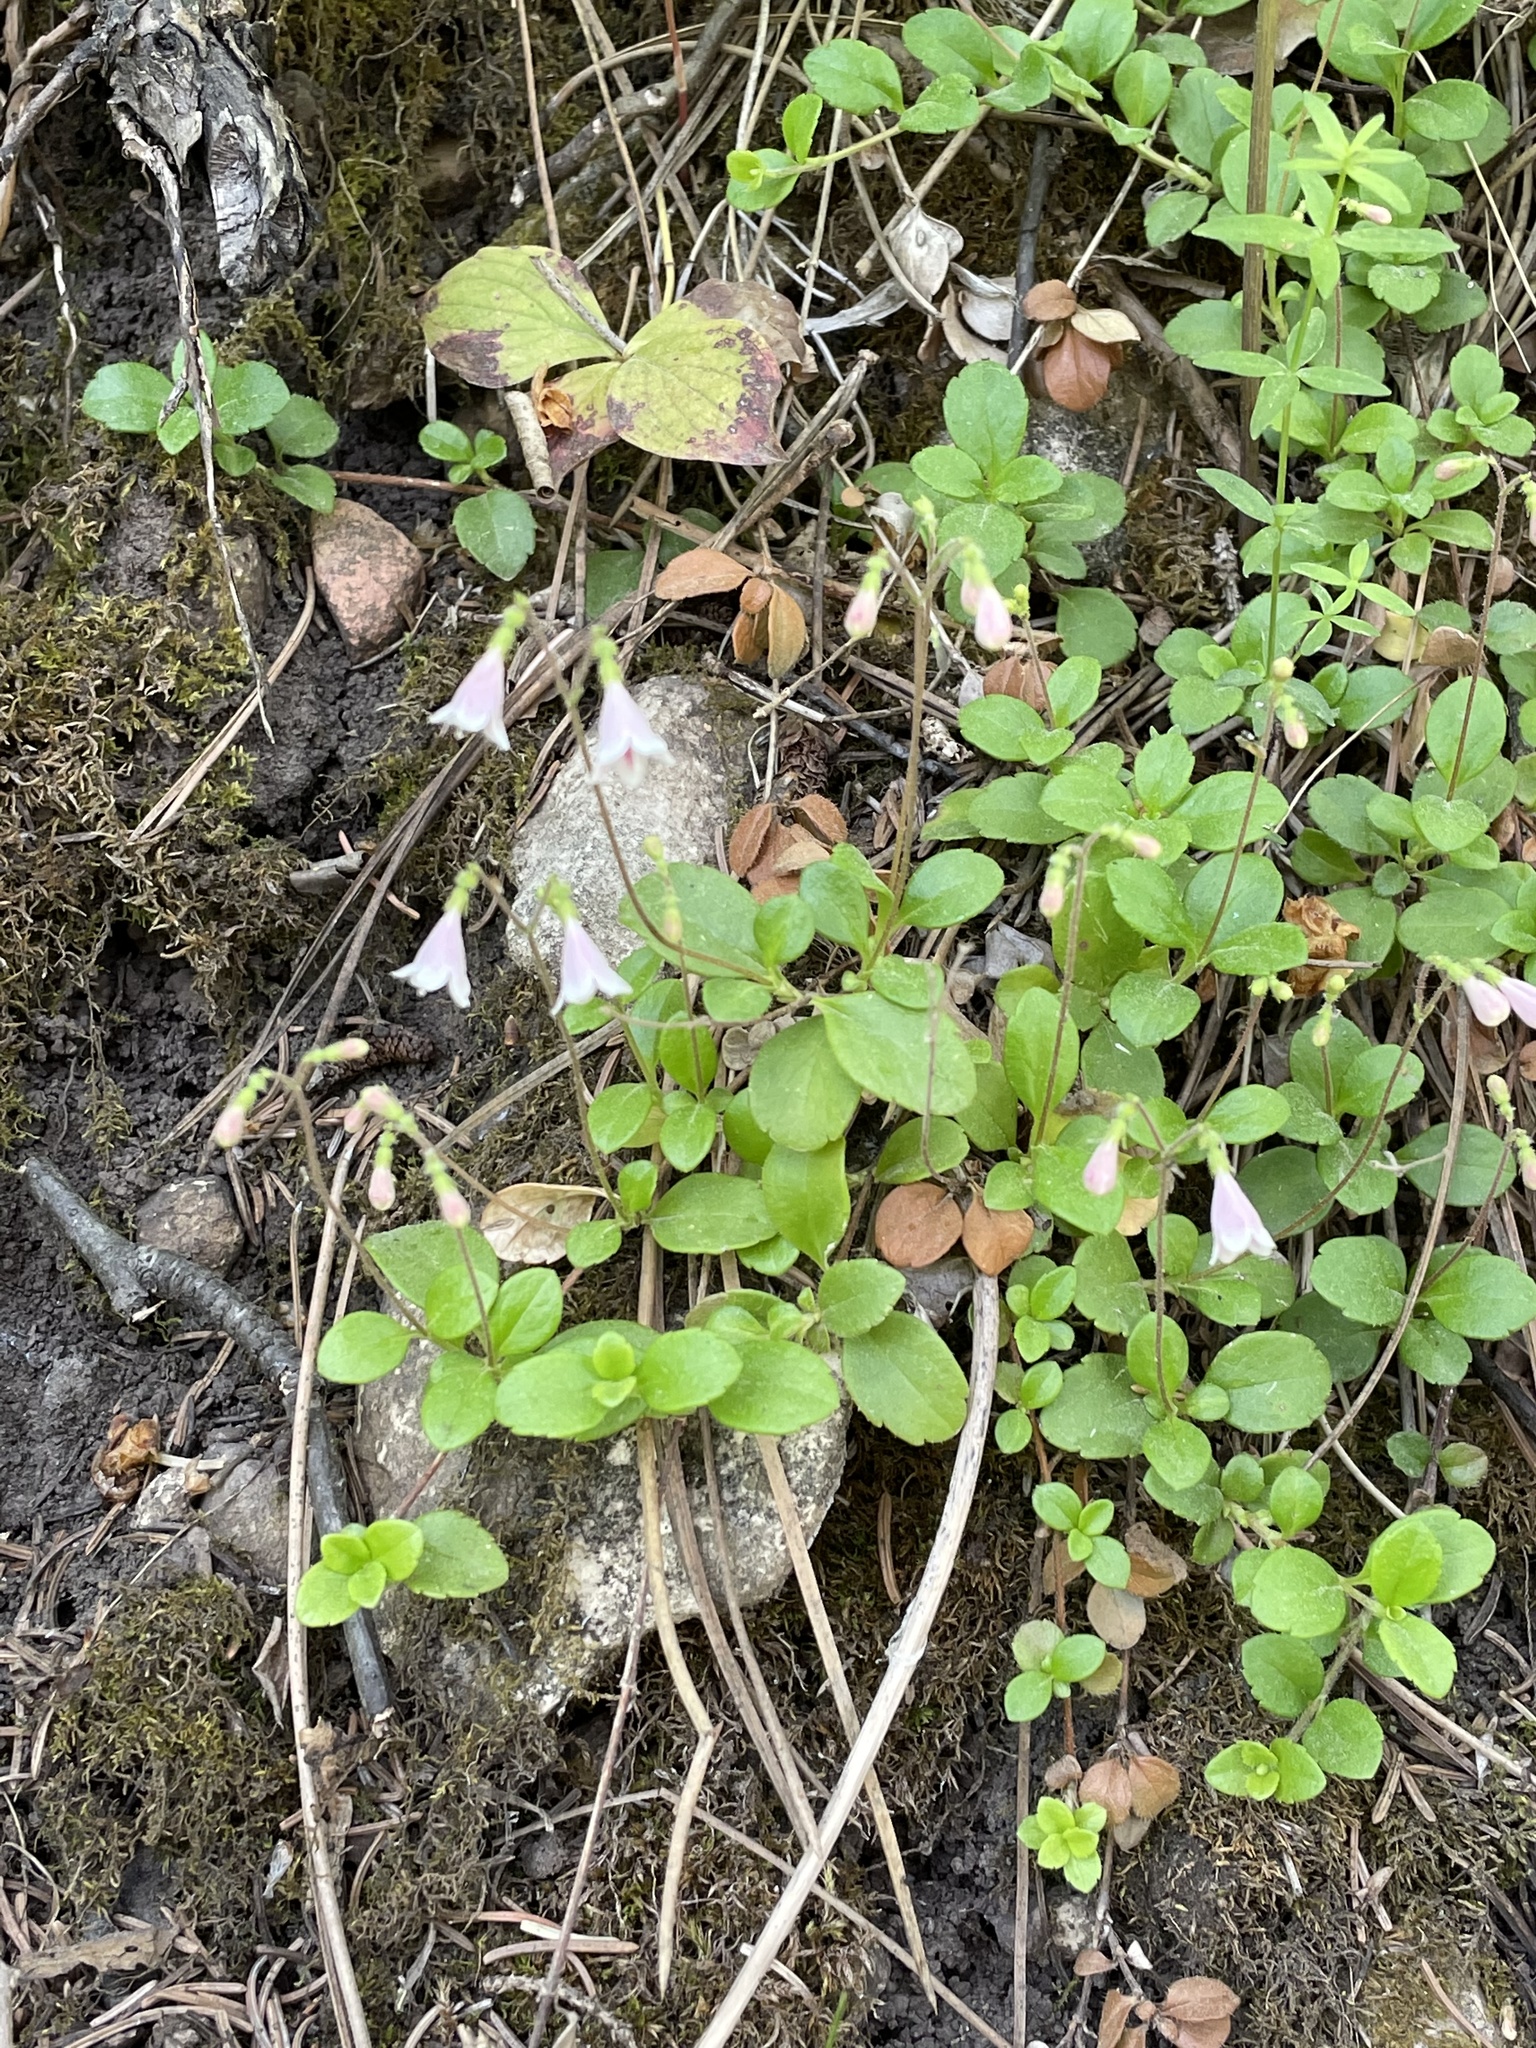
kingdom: Plantae
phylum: Tracheophyta
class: Magnoliopsida
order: Dipsacales
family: Caprifoliaceae
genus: Linnaea
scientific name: Linnaea borealis
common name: Twinflower
